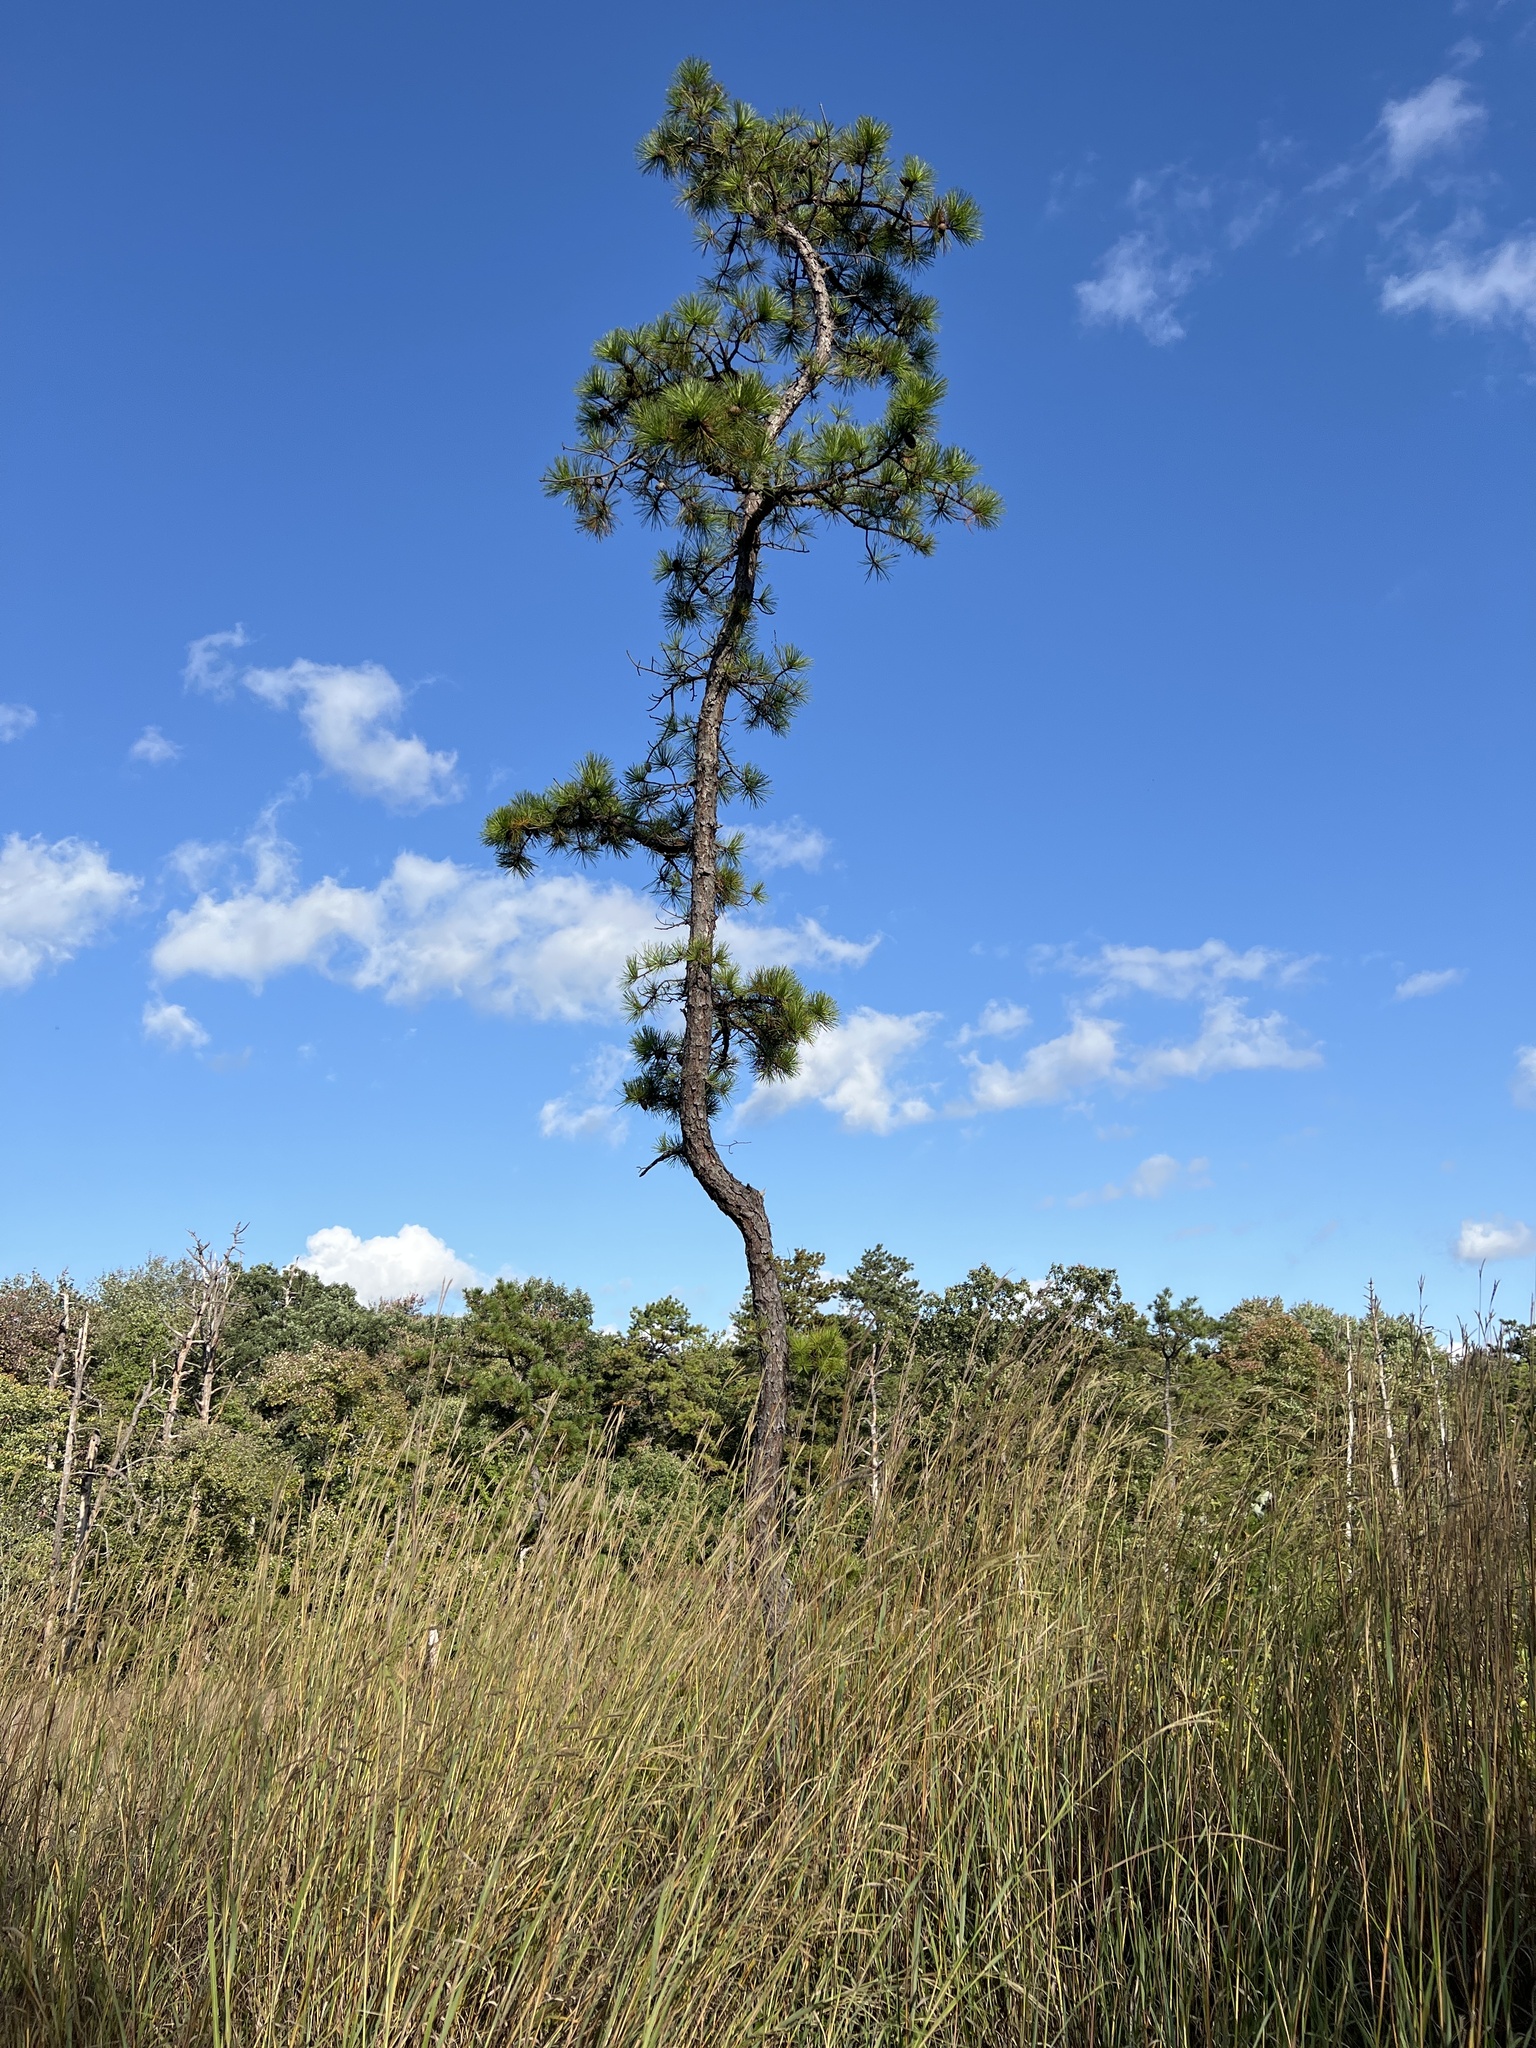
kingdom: Plantae
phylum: Tracheophyta
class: Pinopsida
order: Pinales
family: Pinaceae
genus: Pinus
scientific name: Pinus rigida
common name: Pitch pine
